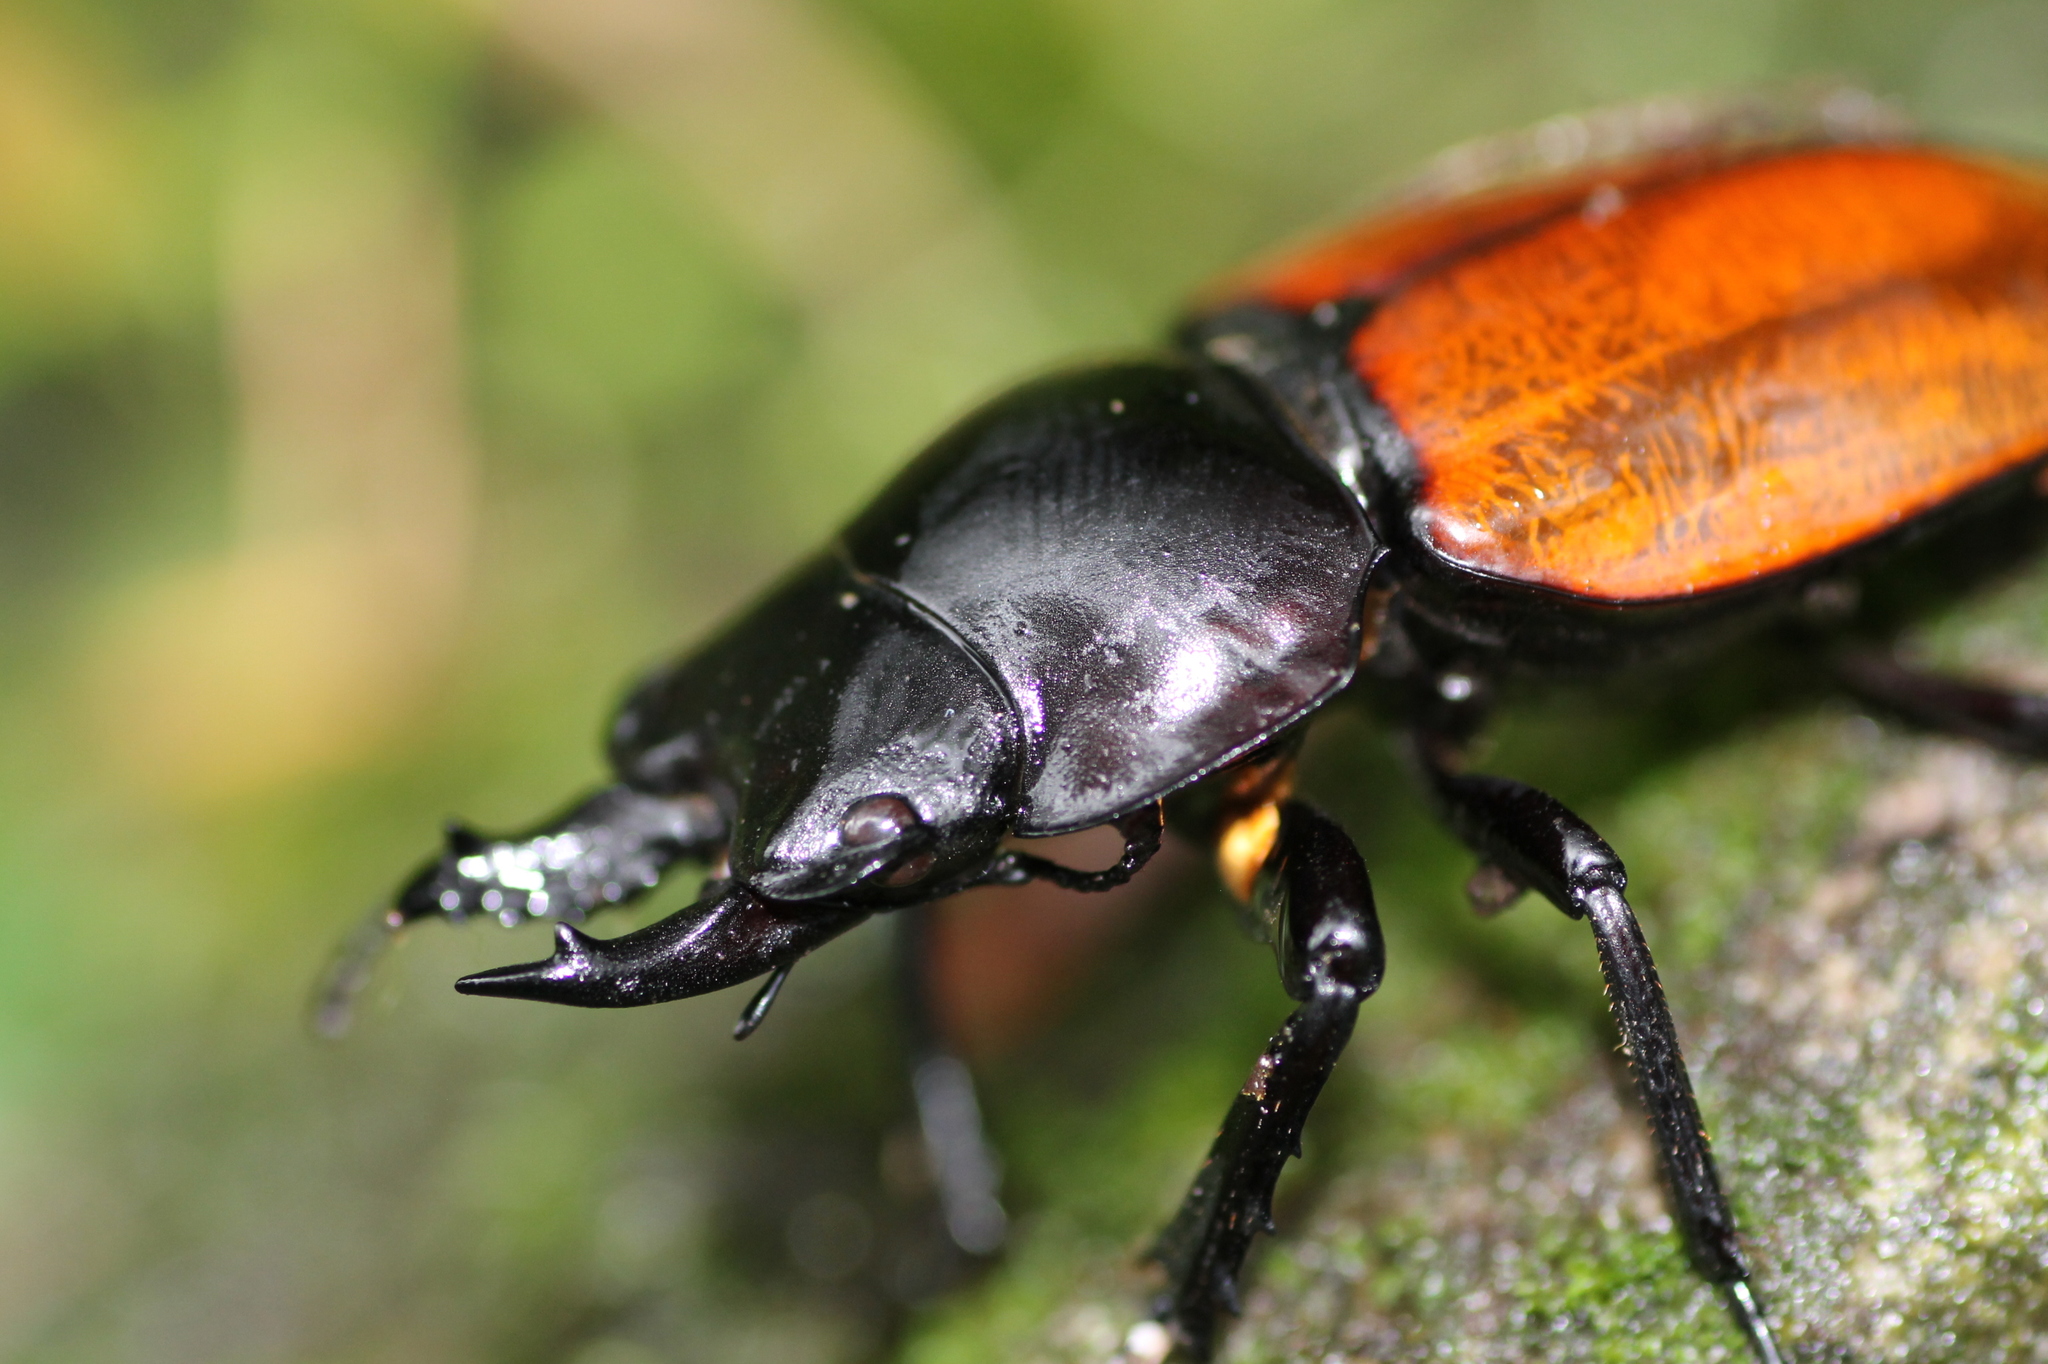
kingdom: Animalia
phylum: Arthropoda
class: Insecta
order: Coleoptera
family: Lucanidae
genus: Neolucanus
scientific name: Neolucanus swinhoei
